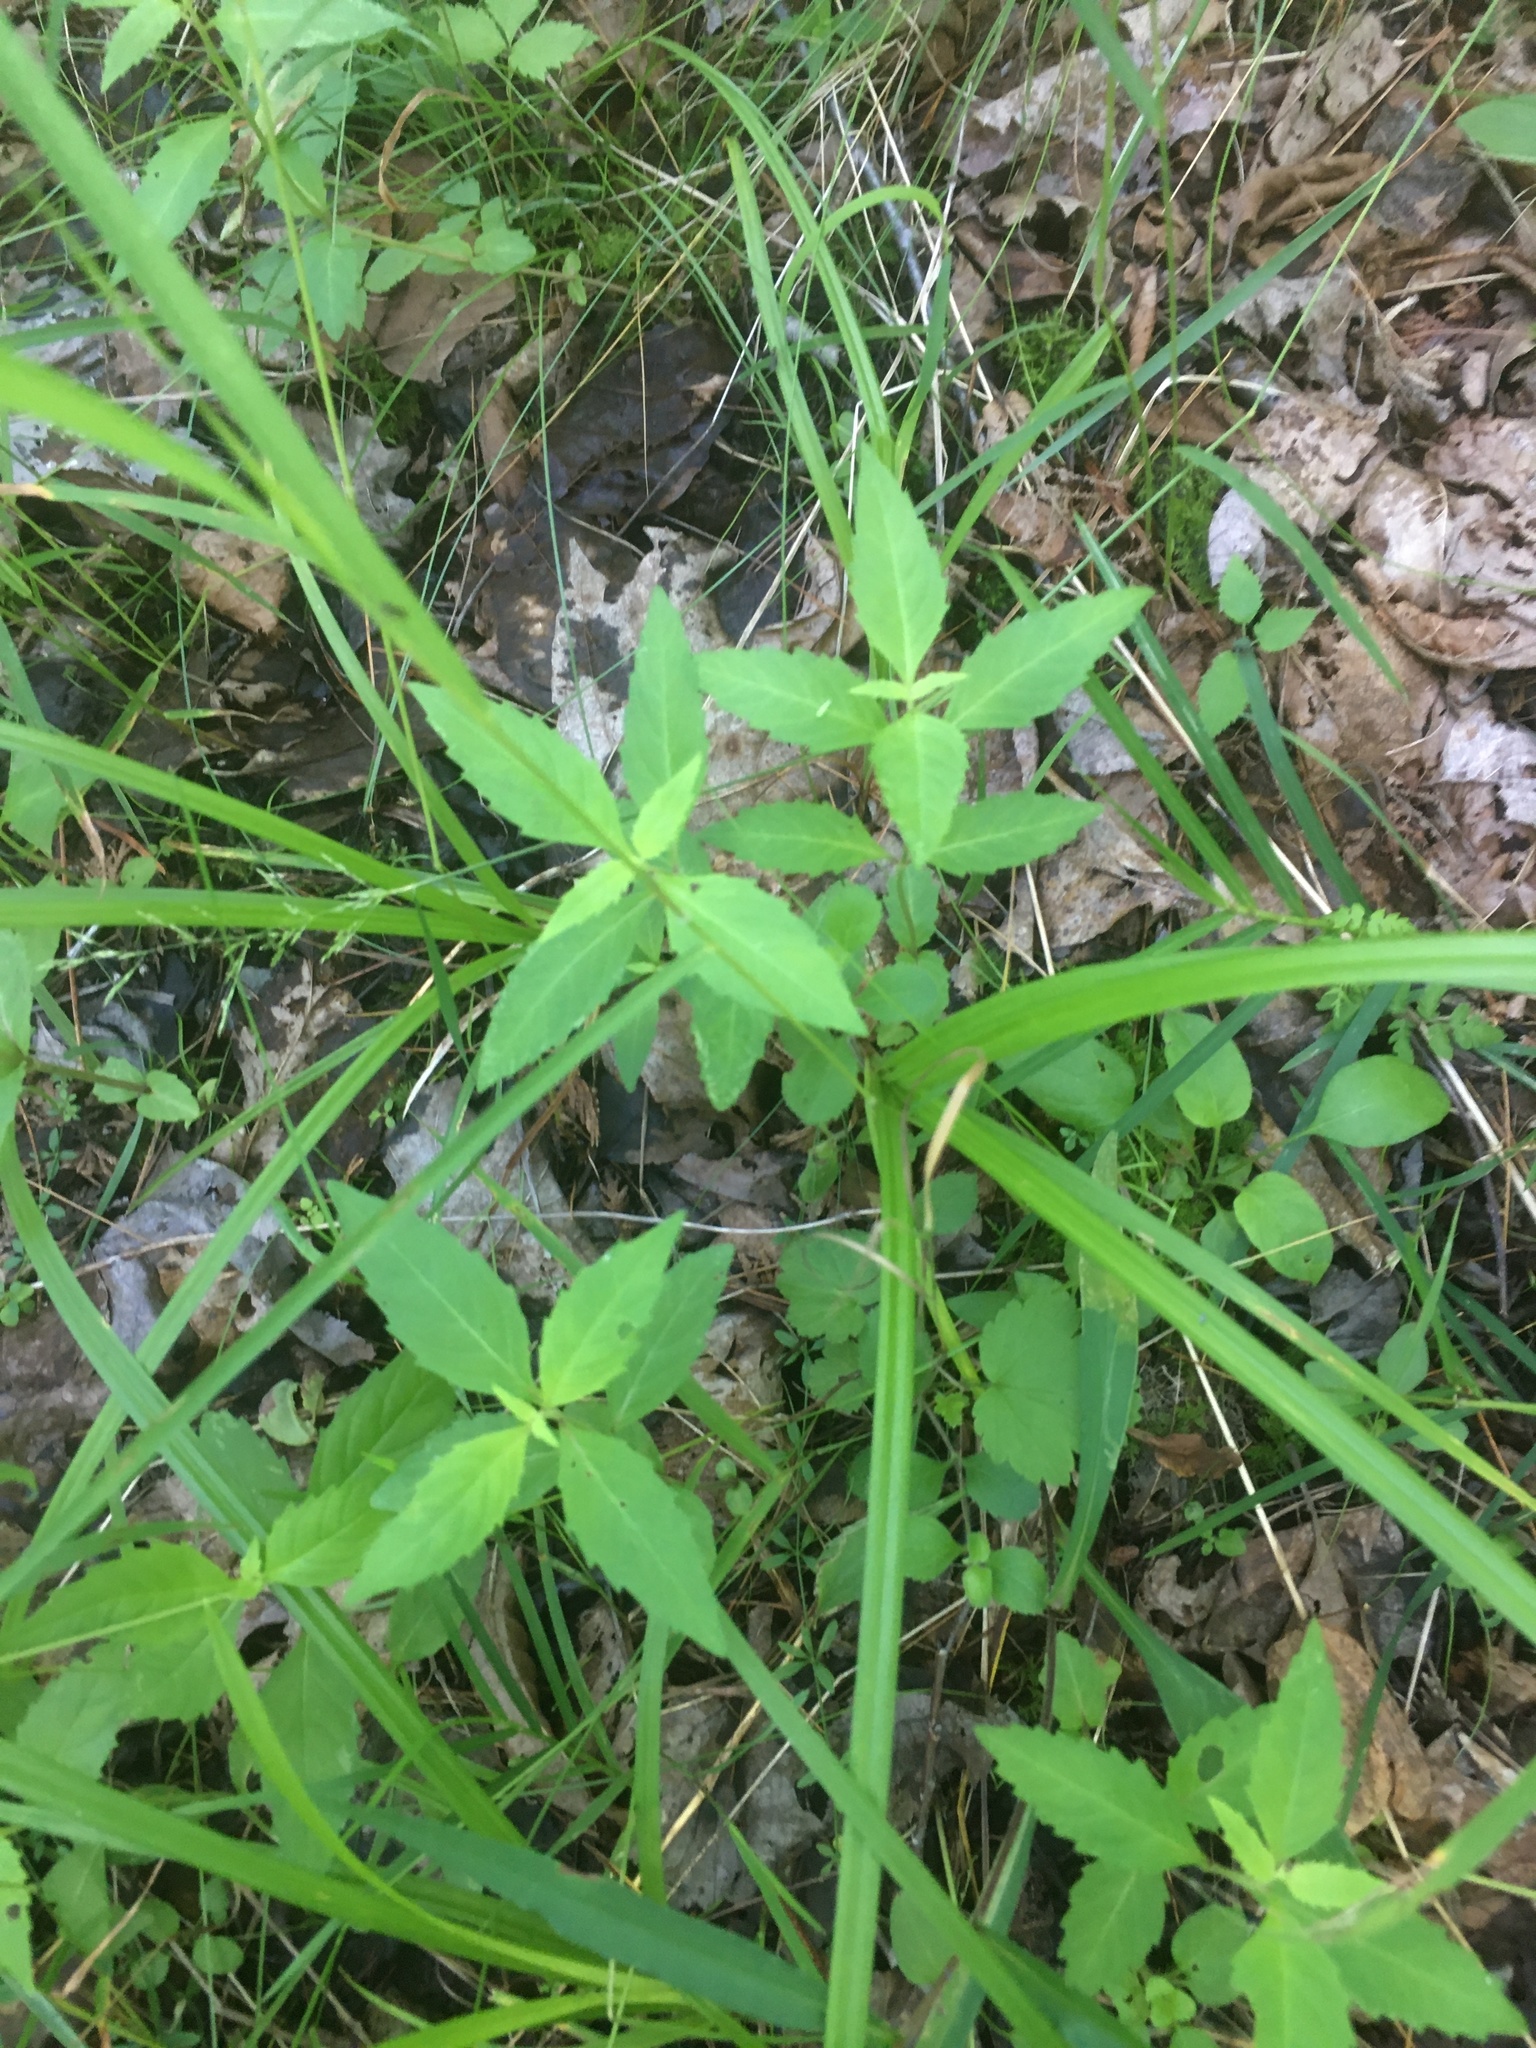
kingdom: Plantae
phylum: Tracheophyta
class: Magnoliopsida
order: Lamiales
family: Lamiaceae
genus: Lycopus
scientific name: Lycopus uniflorus
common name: Northern bugleweed
